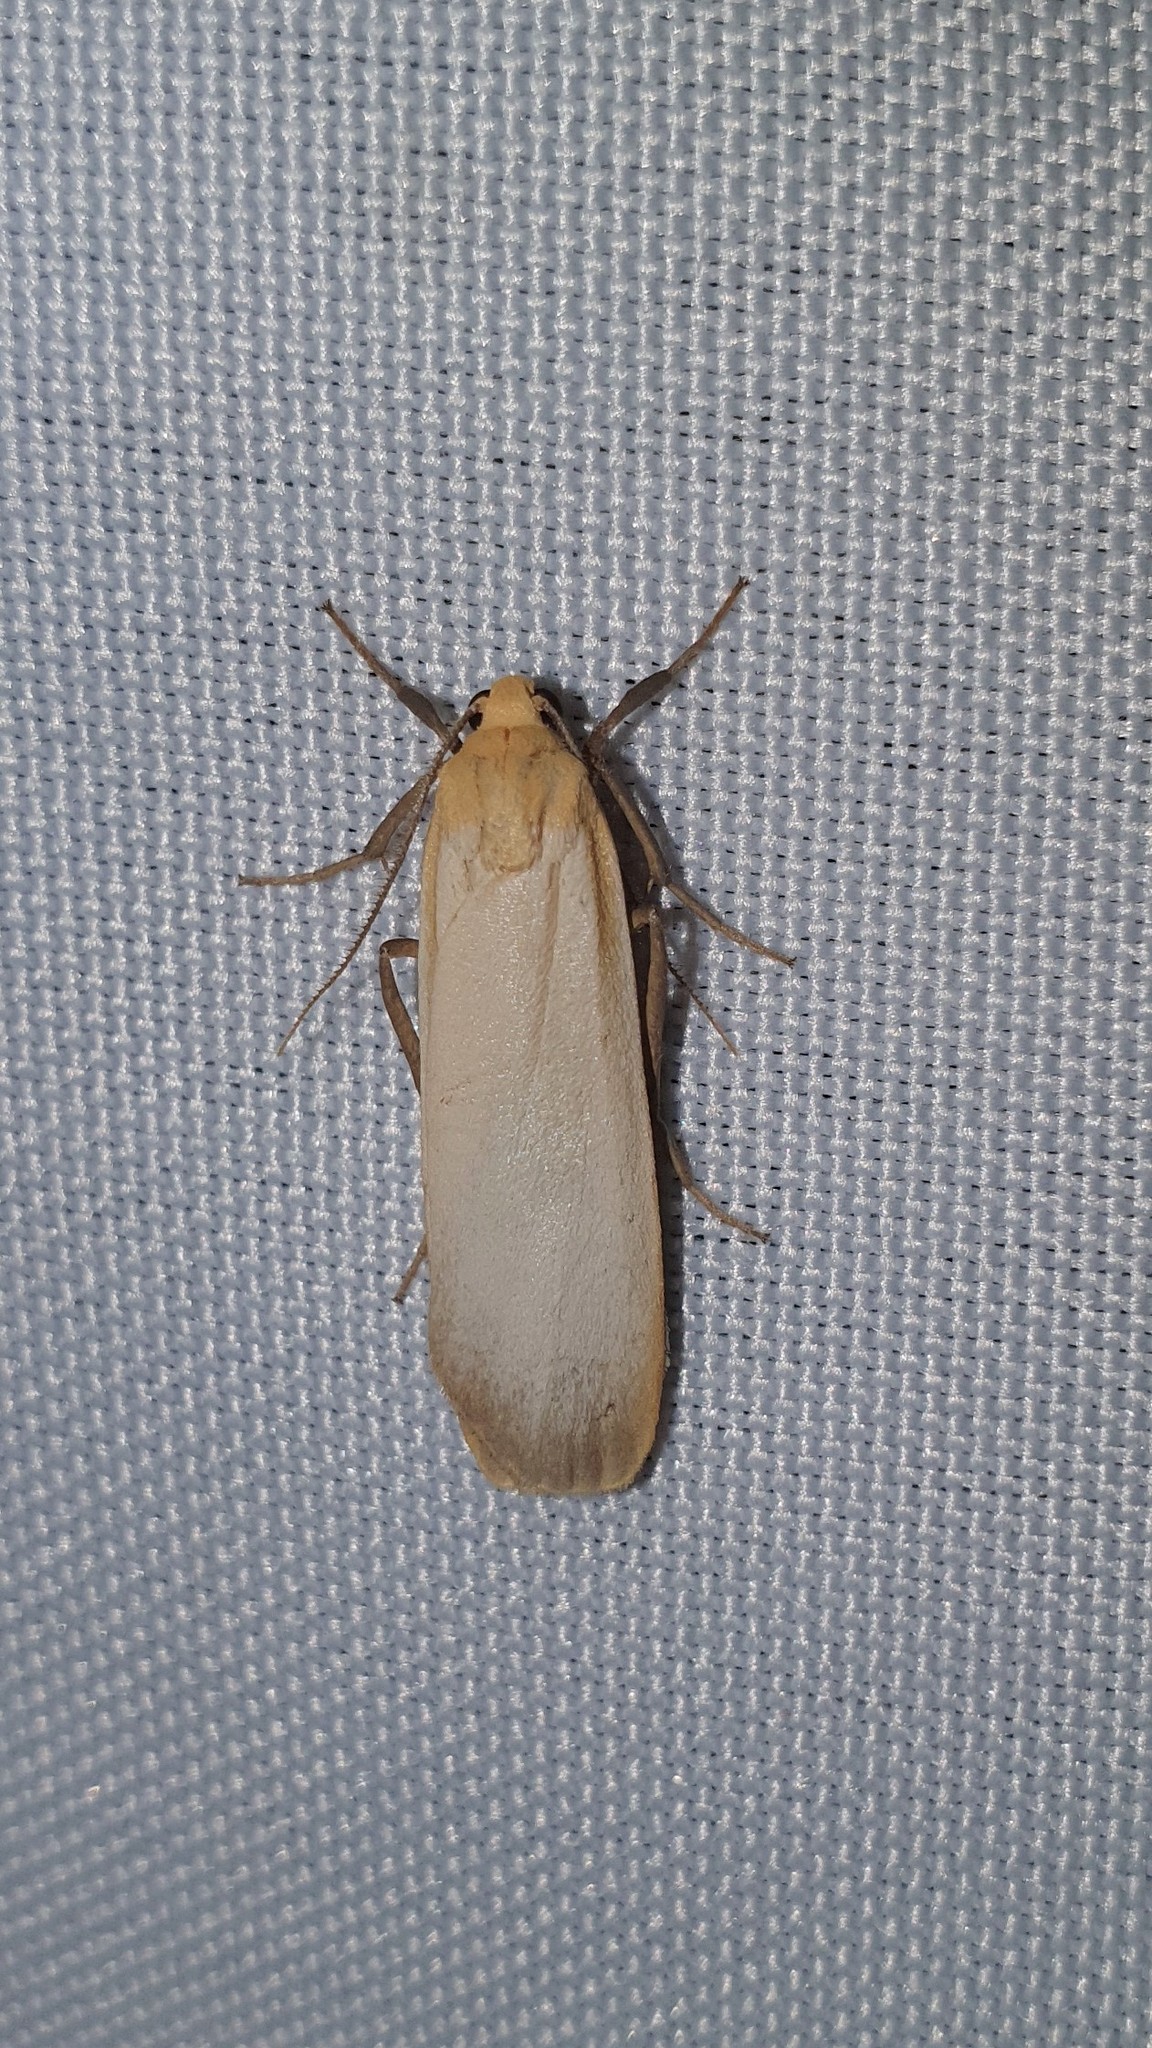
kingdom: Animalia
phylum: Arthropoda
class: Insecta
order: Lepidoptera
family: Erebidae
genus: Katha
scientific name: Katha depressa
